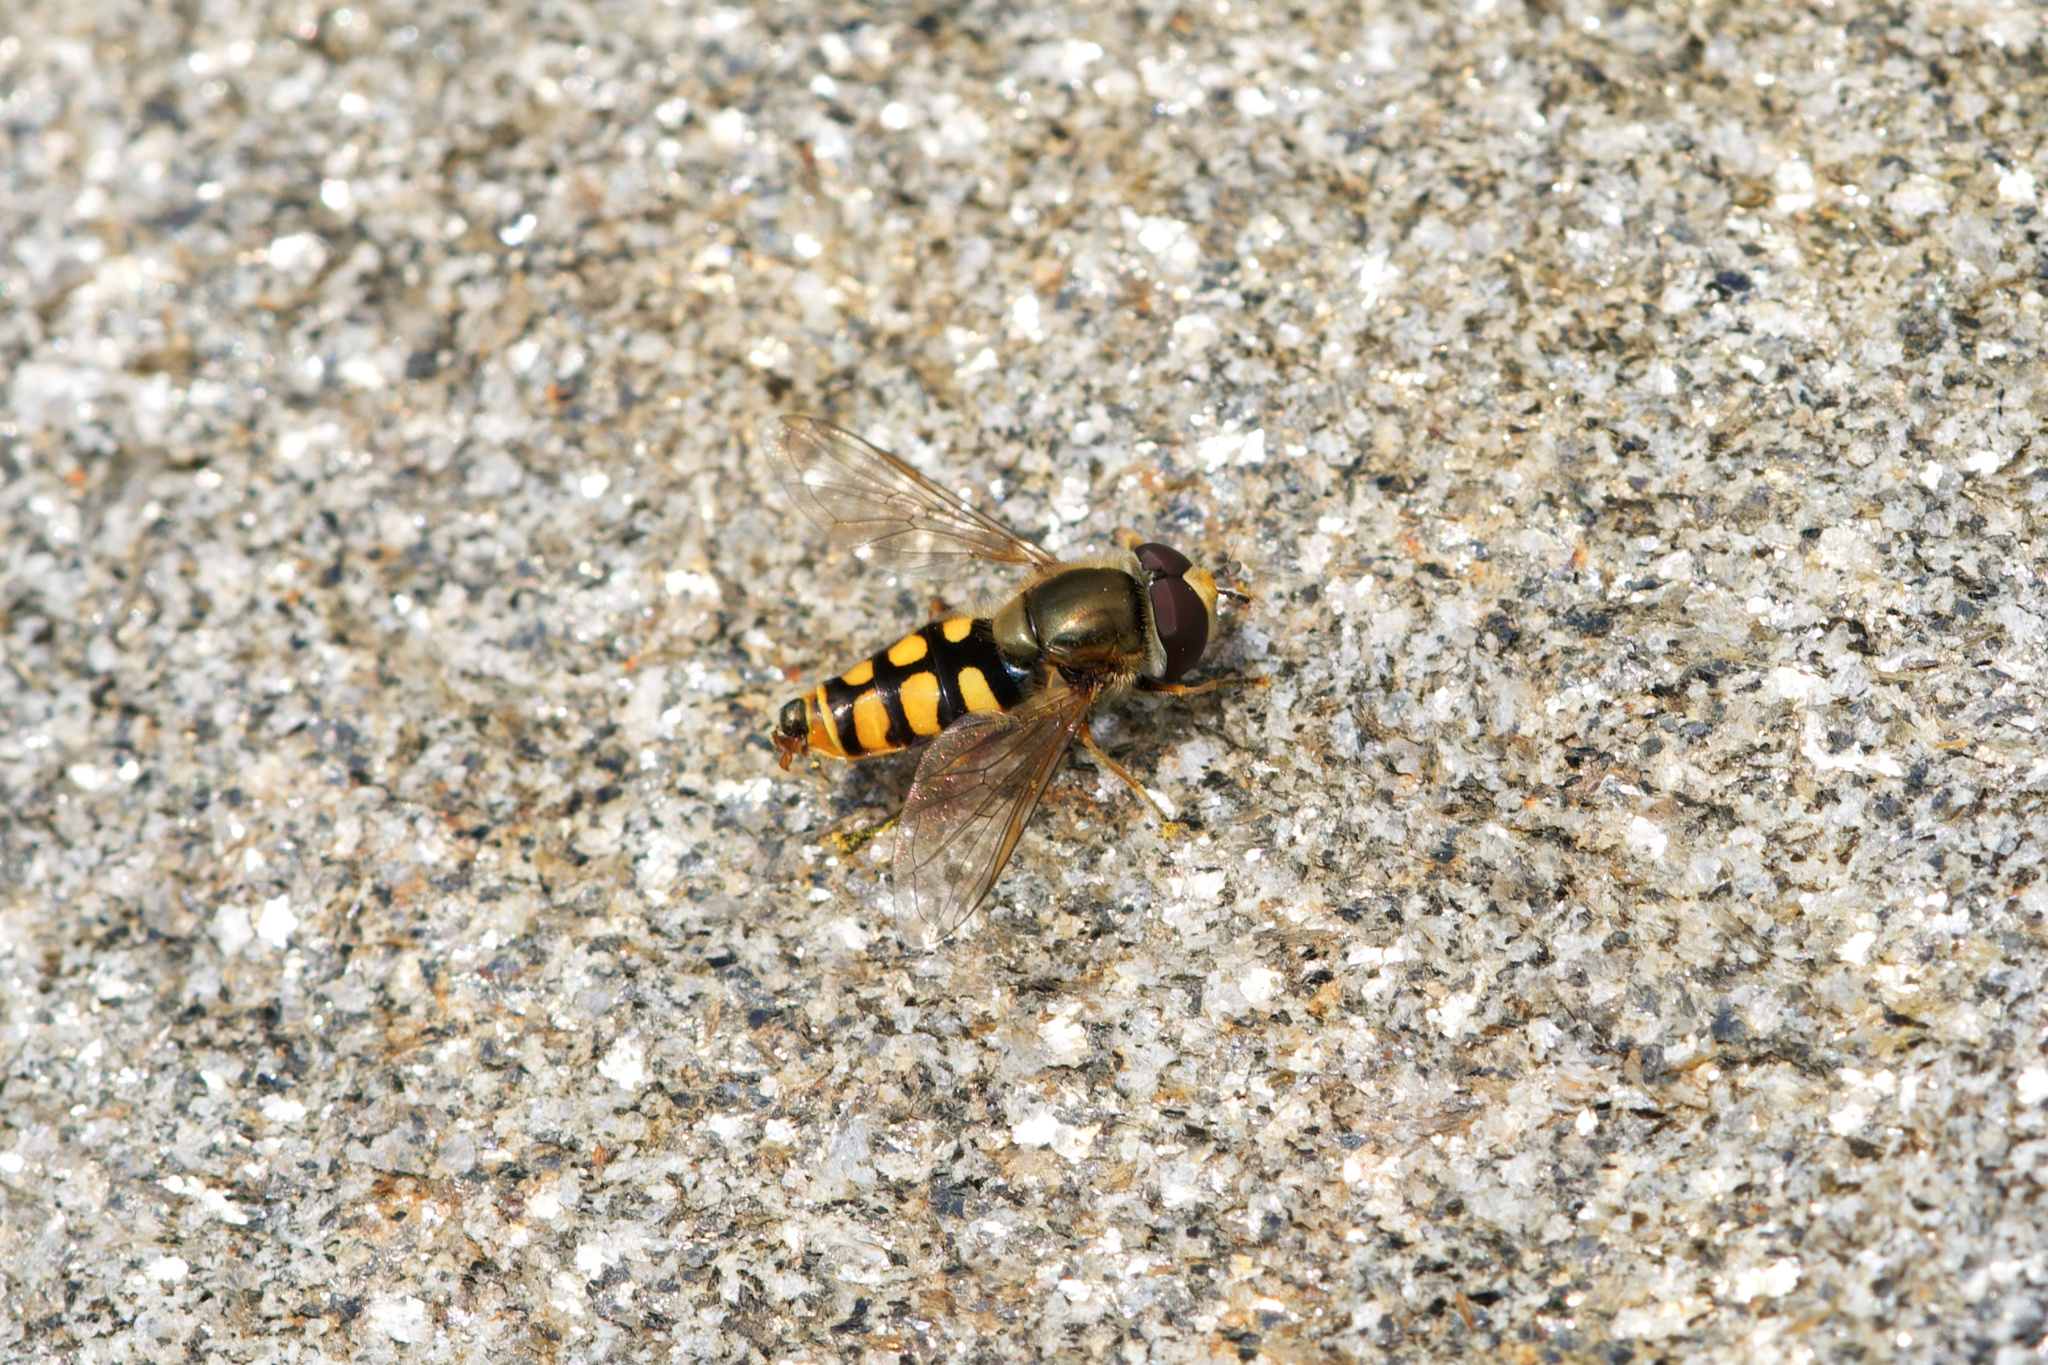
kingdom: Animalia
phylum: Arthropoda
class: Insecta
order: Diptera
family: Syrphidae
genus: Eupeodes
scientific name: Eupeodes corollae
